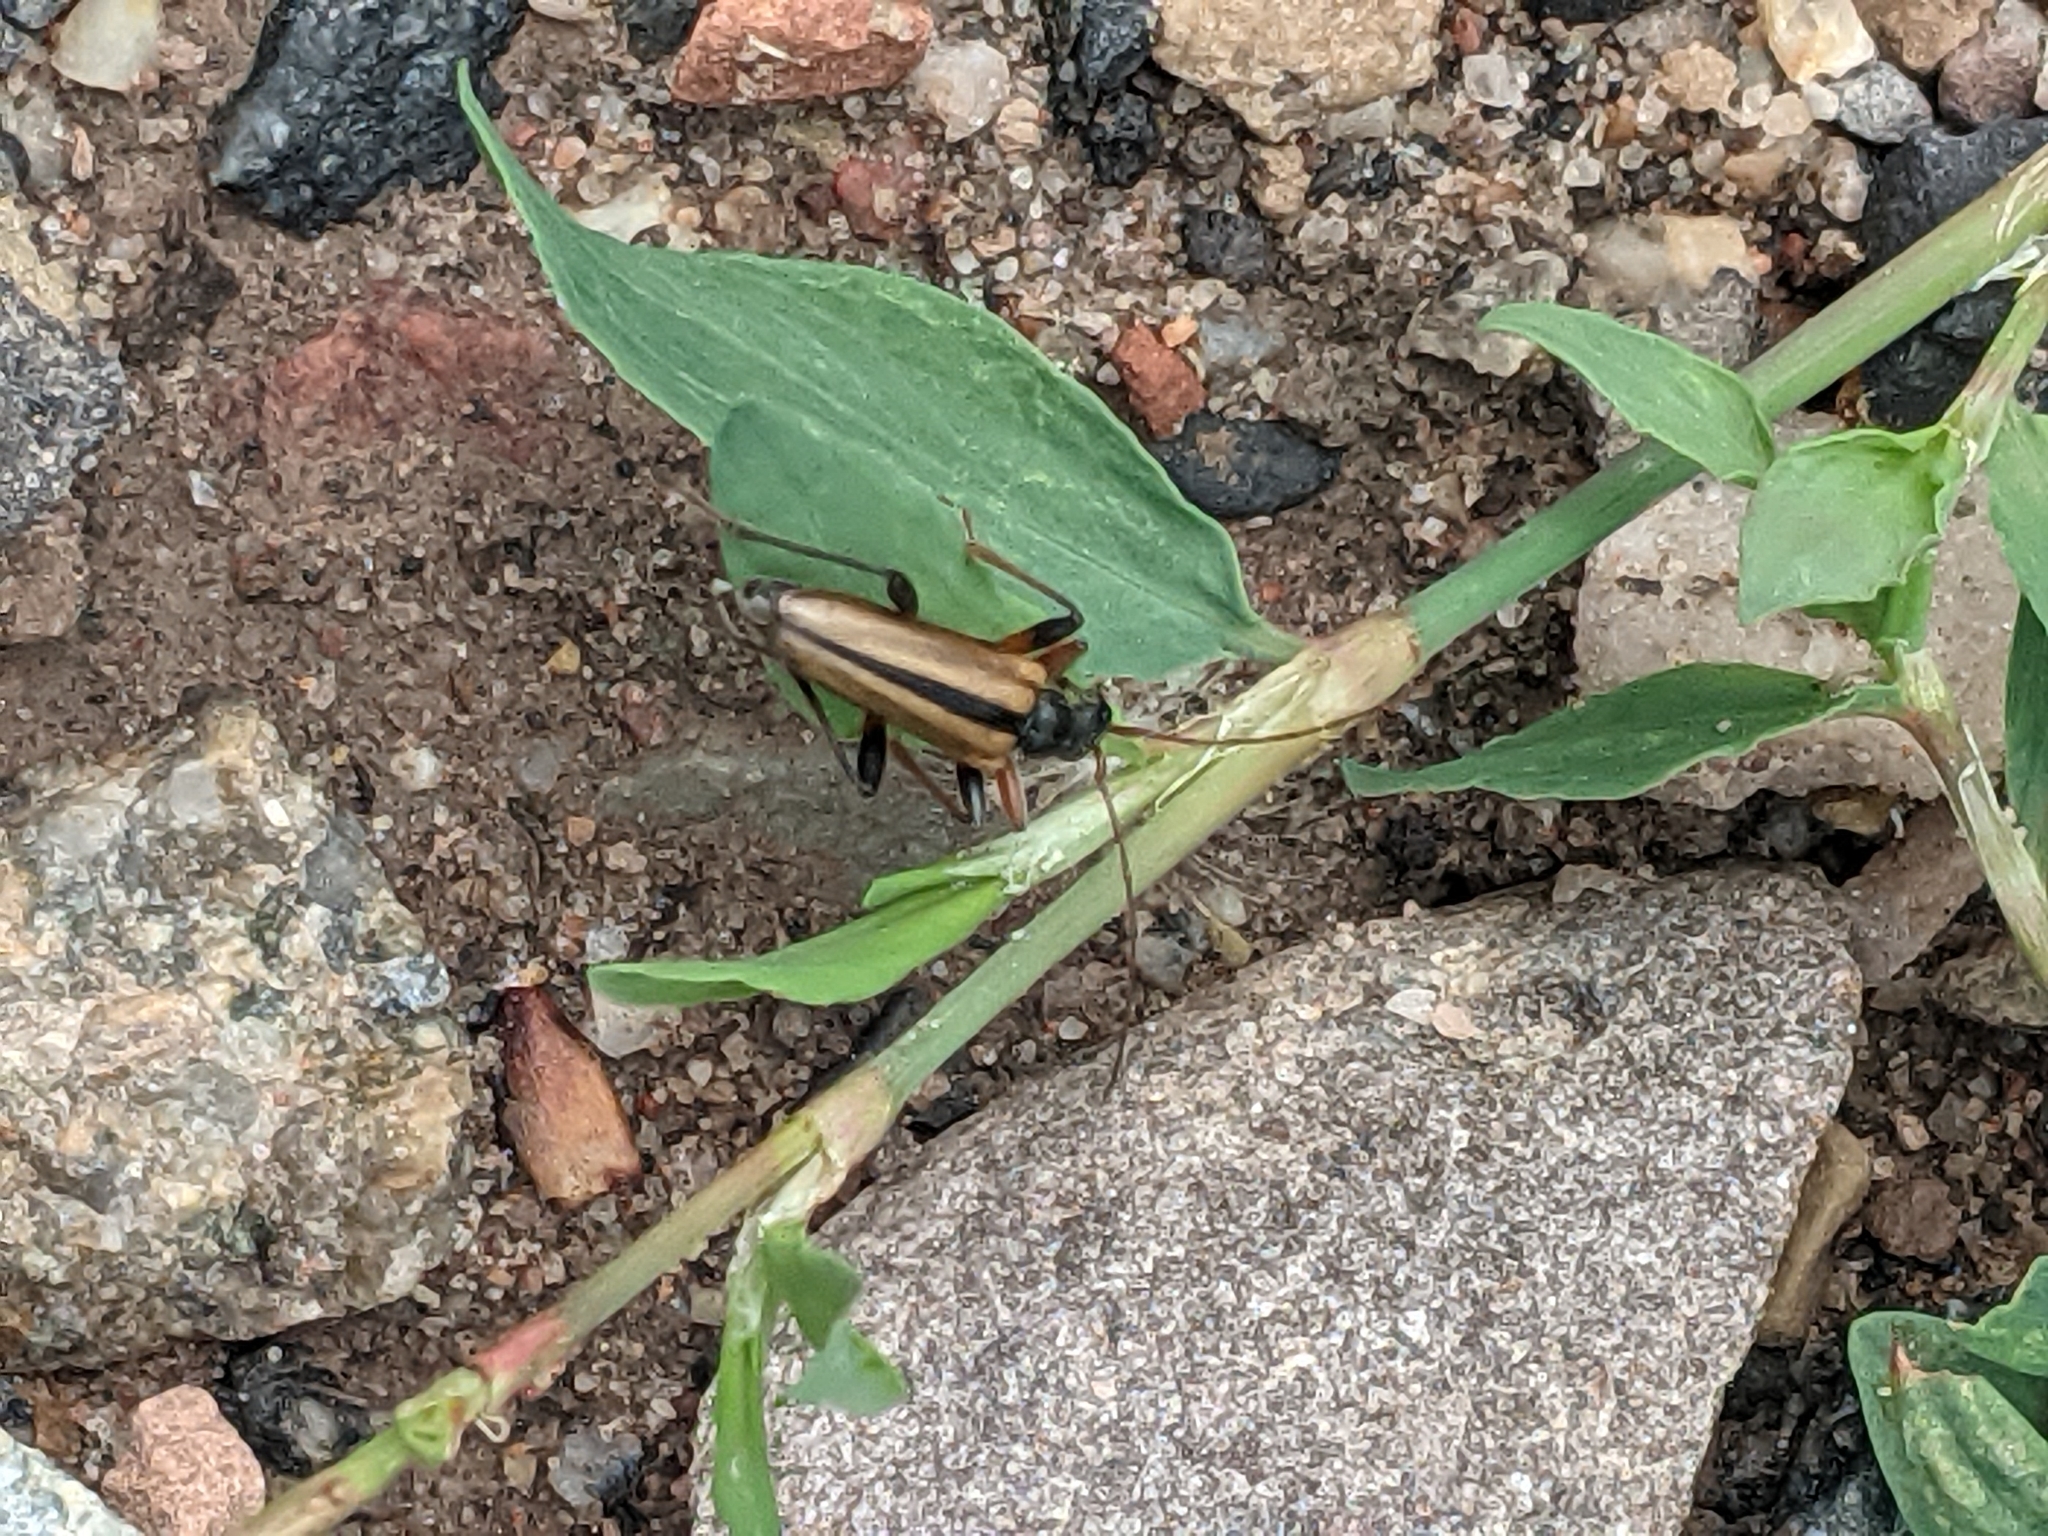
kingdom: Animalia
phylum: Arthropoda
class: Insecta
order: Coleoptera
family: Cerambycidae
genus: Cortodera
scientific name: Cortodera longicornis
